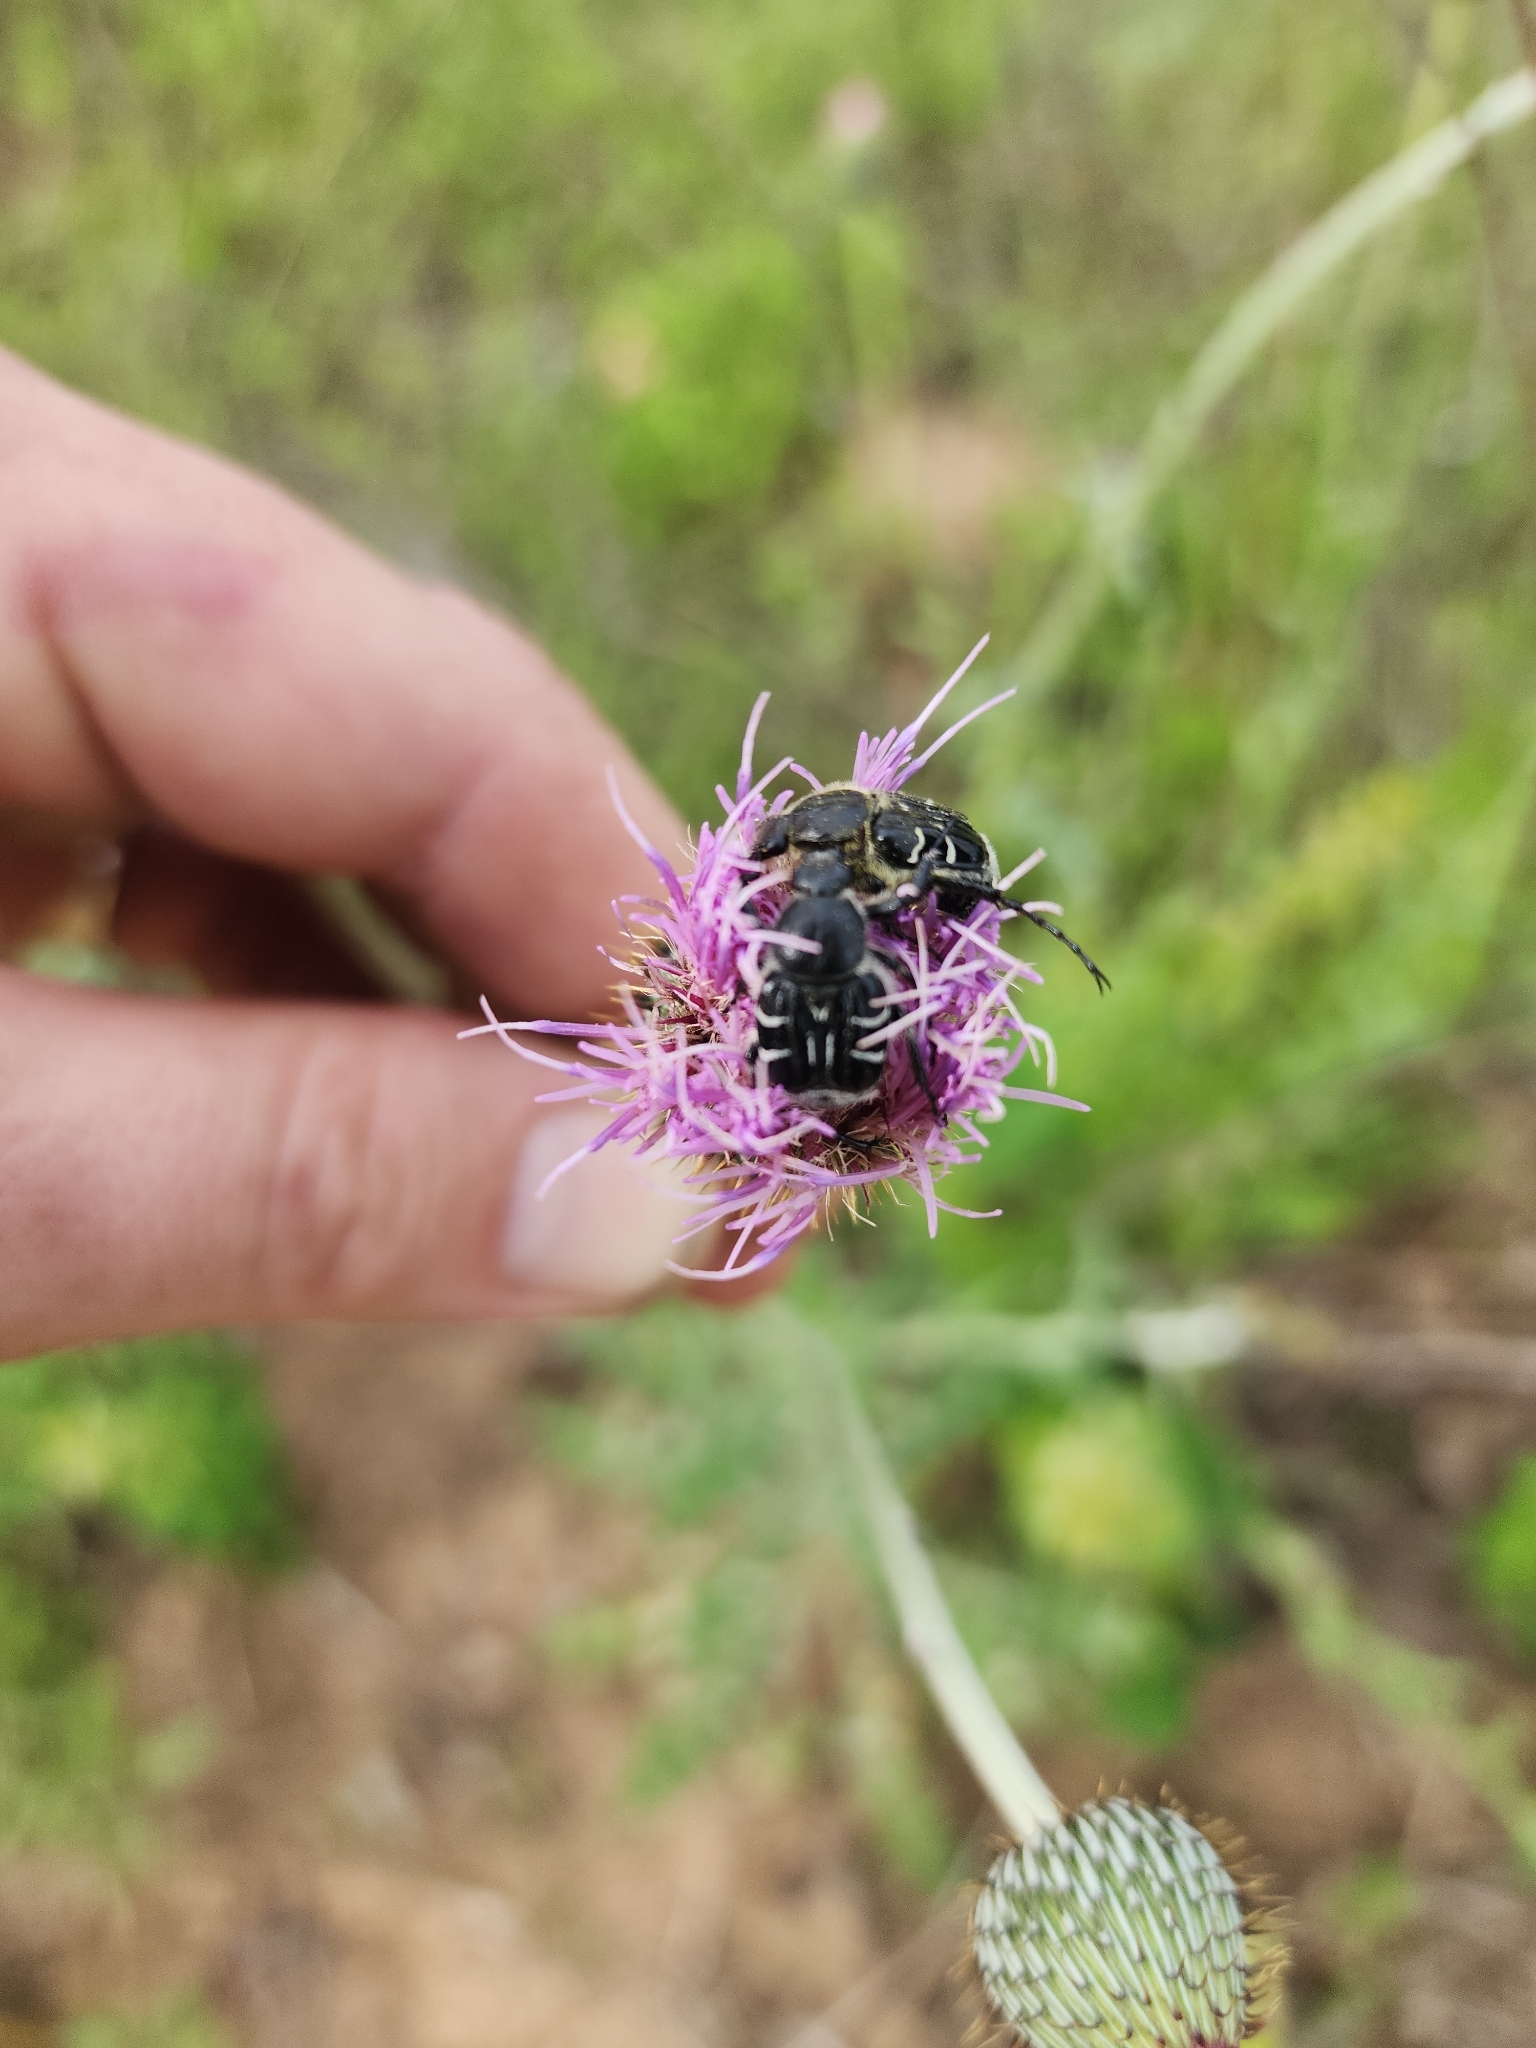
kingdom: Animalia
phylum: Arthropoda
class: Insecta
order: Coleoptera
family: Scarabaeidae
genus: Trichiotinus
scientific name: Trichiotinus texanus
